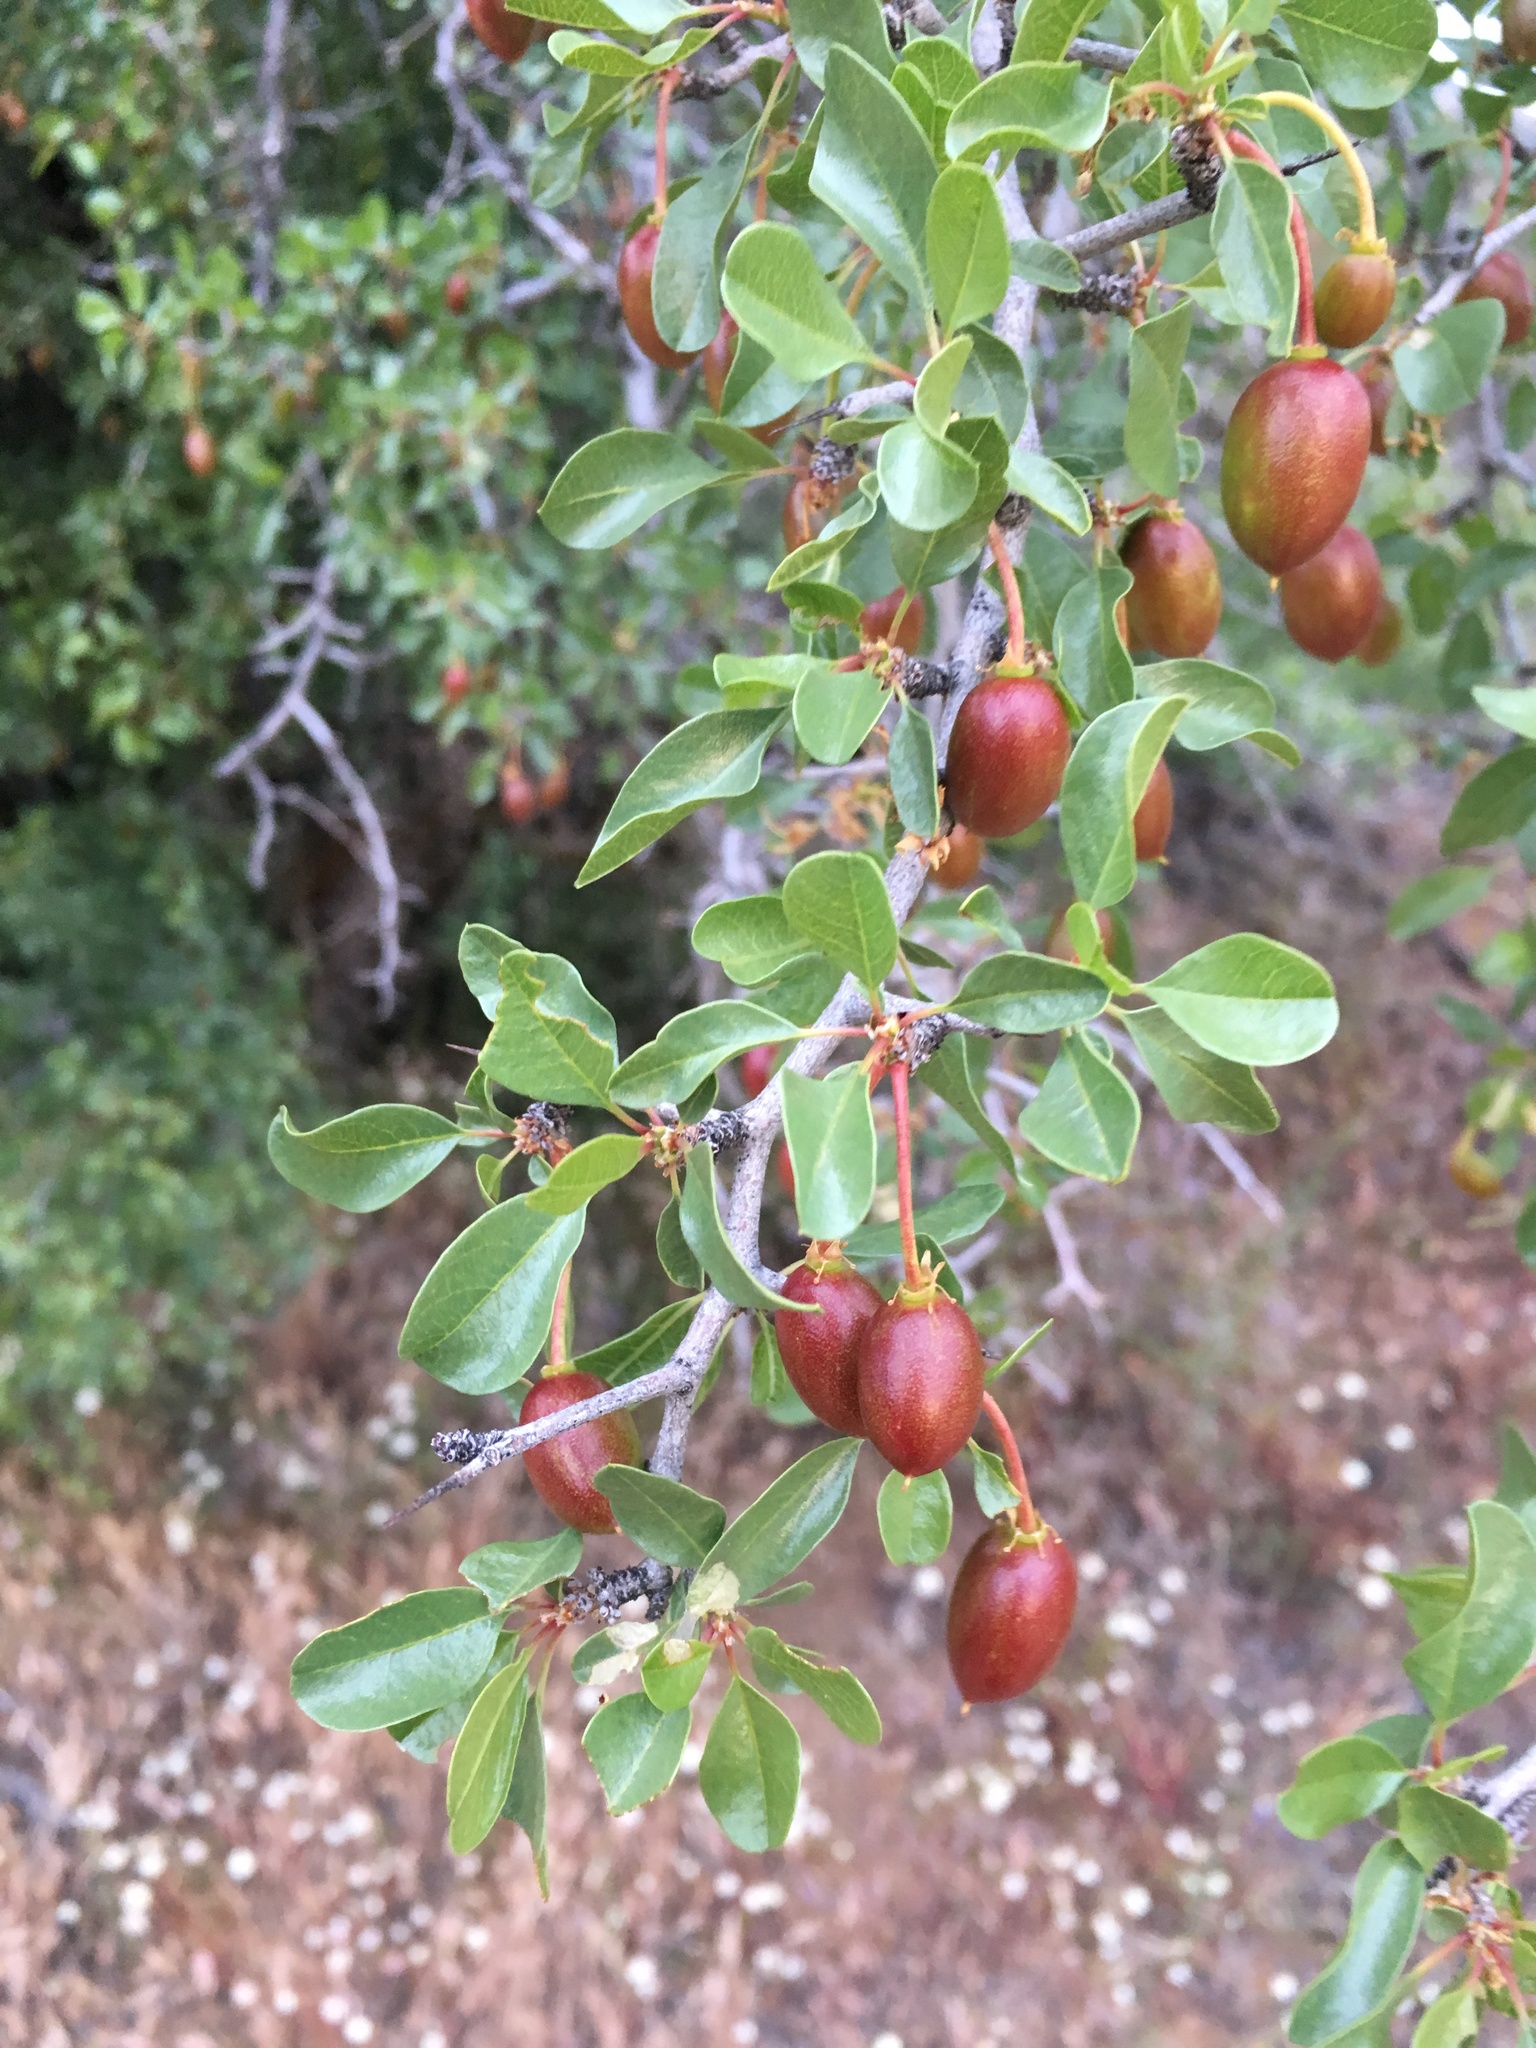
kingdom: Plantae
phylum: Tracheophyta
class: Magnoliopsida
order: Rosales
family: Rhamnaceae
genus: Pseudoziziphus
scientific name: Pseudoziziphus parryi
